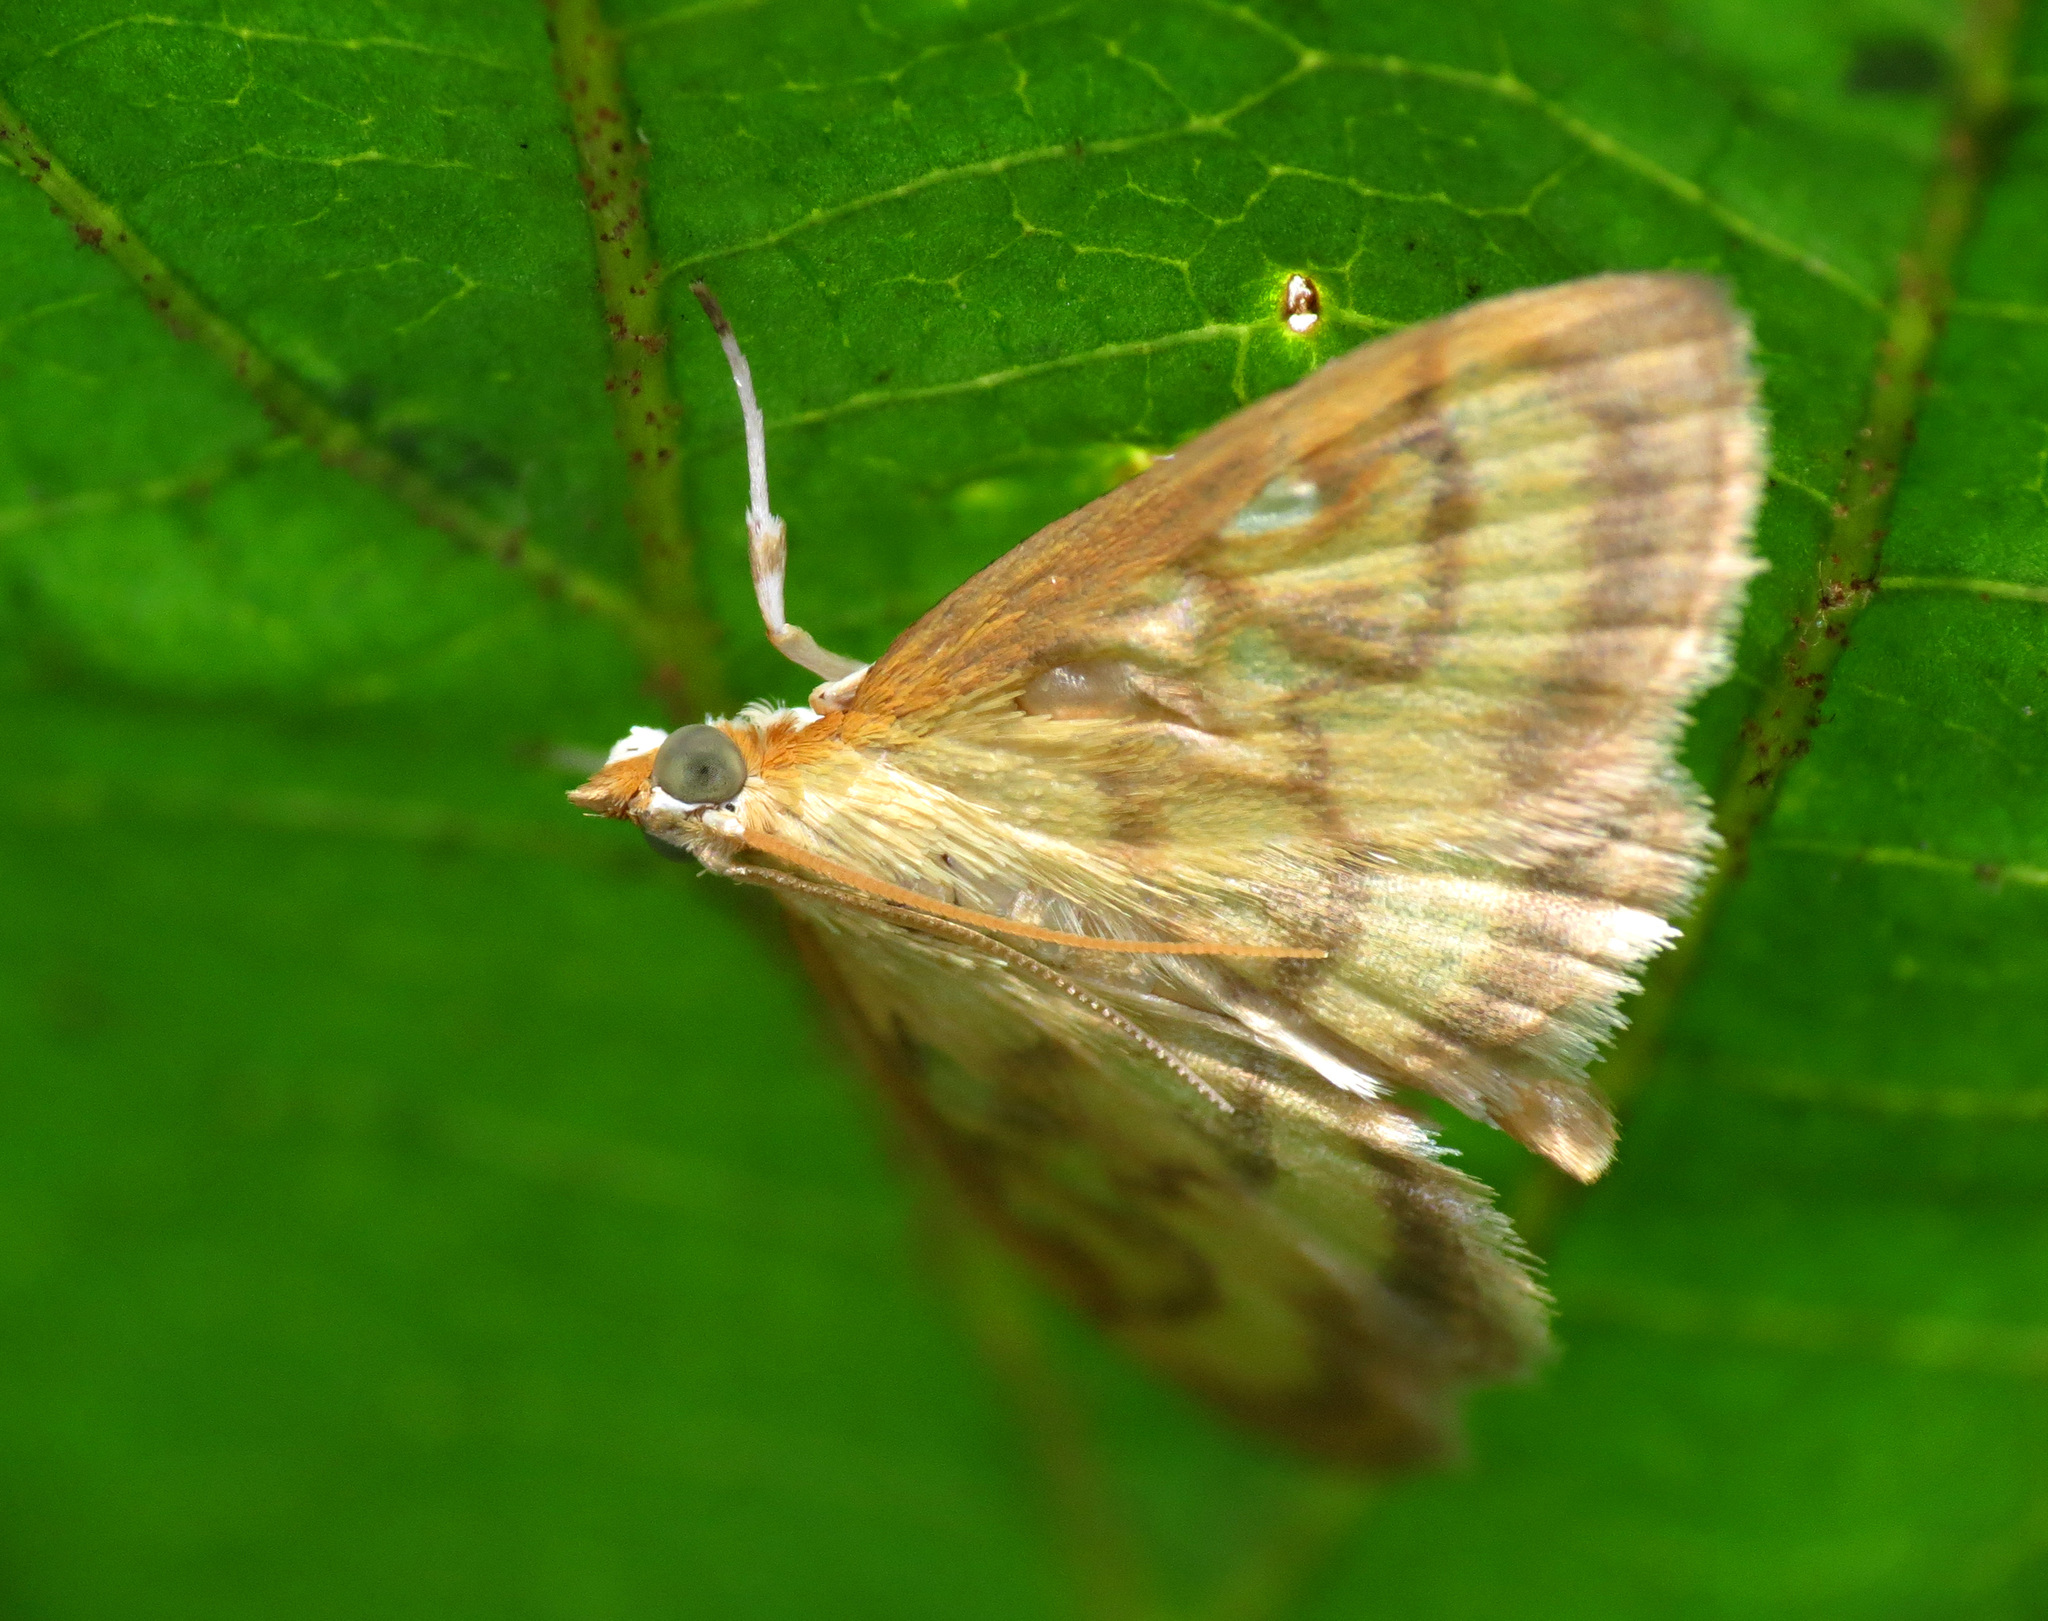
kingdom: Animalia
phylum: Arthropoda
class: Insecta
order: Lepidoptera
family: Crambidae
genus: Crocidophora
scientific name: Crocidophora tuberculalis
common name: Pale-winged crocidiphora moth
